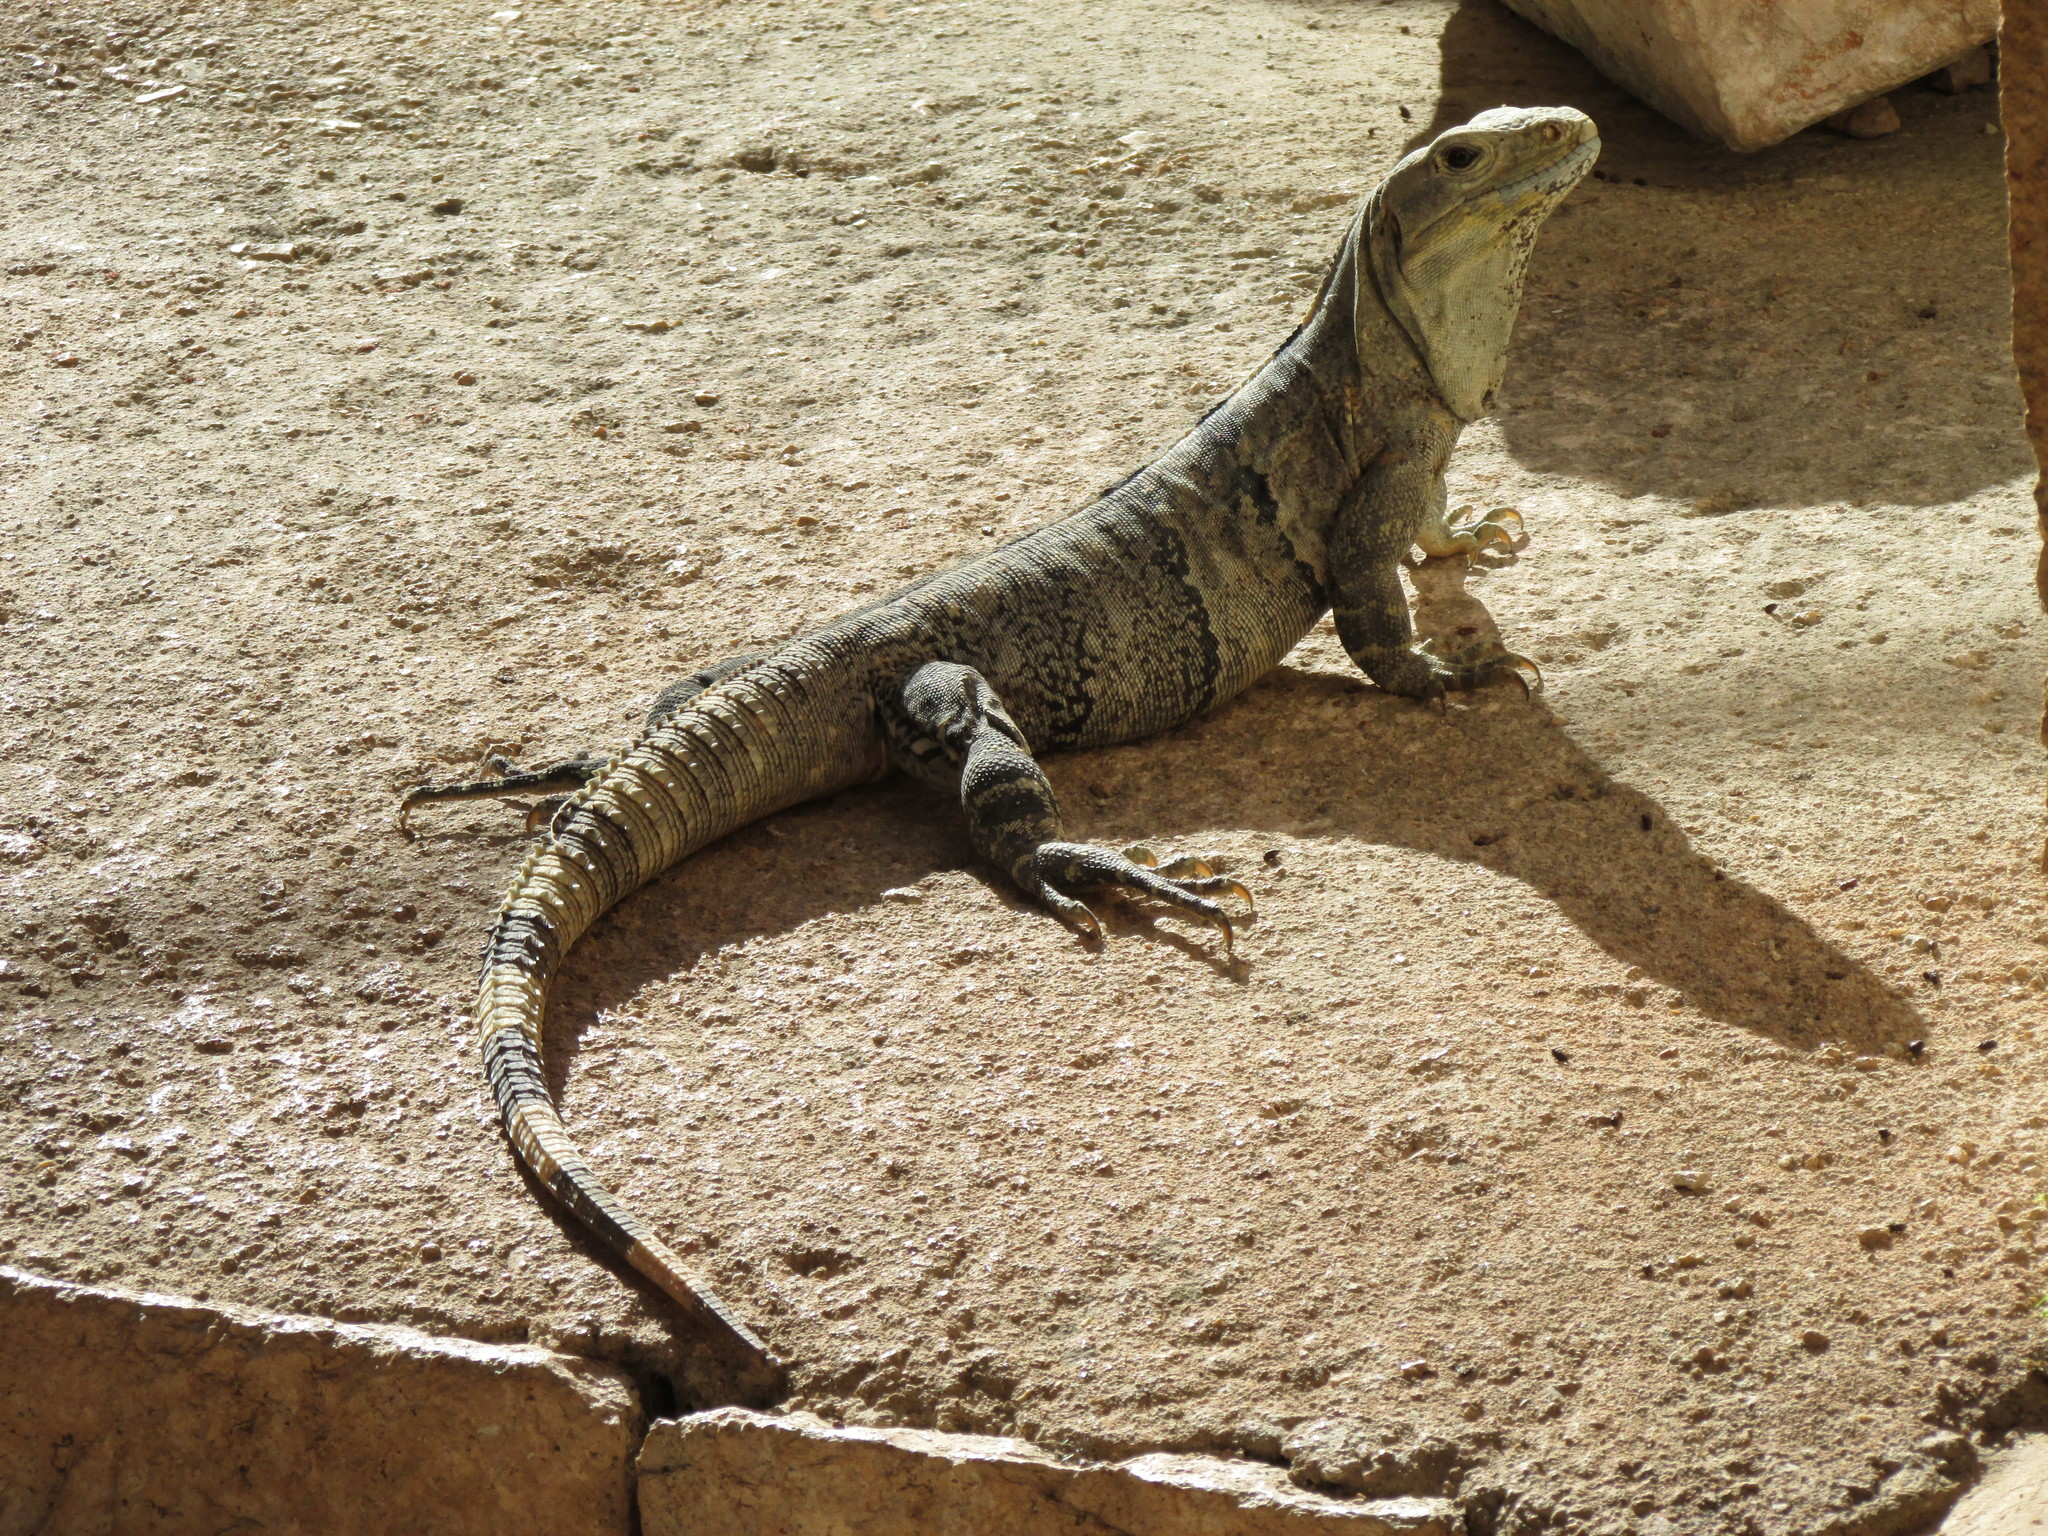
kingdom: Animalia
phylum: Chordata
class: Squamata
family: Iguanidae
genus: Ctenosaura
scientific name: Ctenosaura similis
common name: Black spiny-tailed iguana
